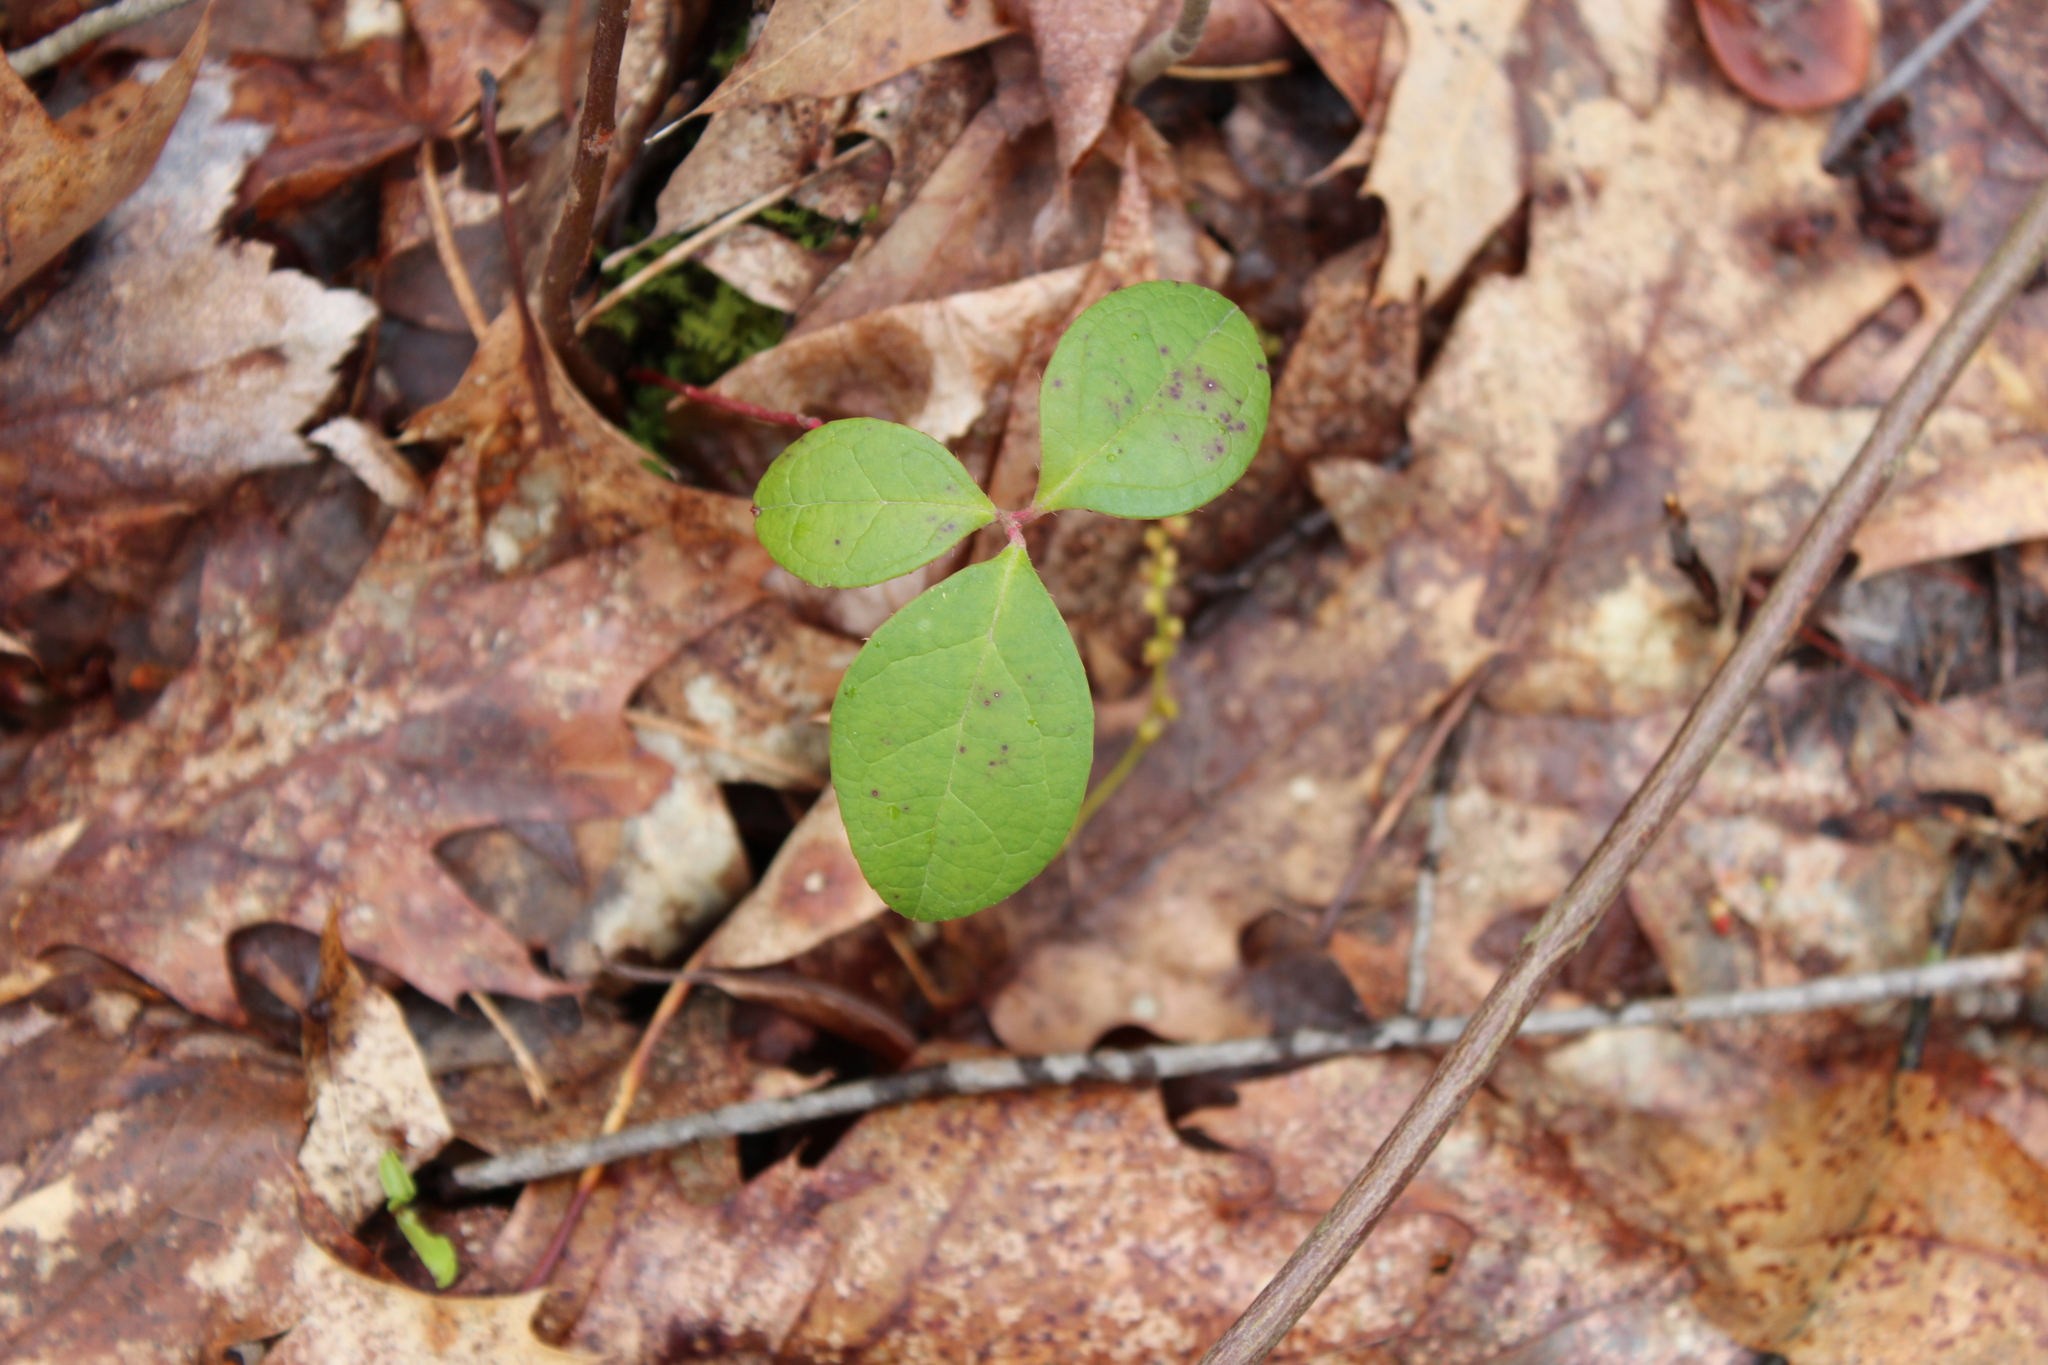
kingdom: Plantae
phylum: Tracheophyta
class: Magnoliopsida
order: Ericales
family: Ericaceae
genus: Gaultheria
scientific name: Gaultheria procumbens
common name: Checkerberry
